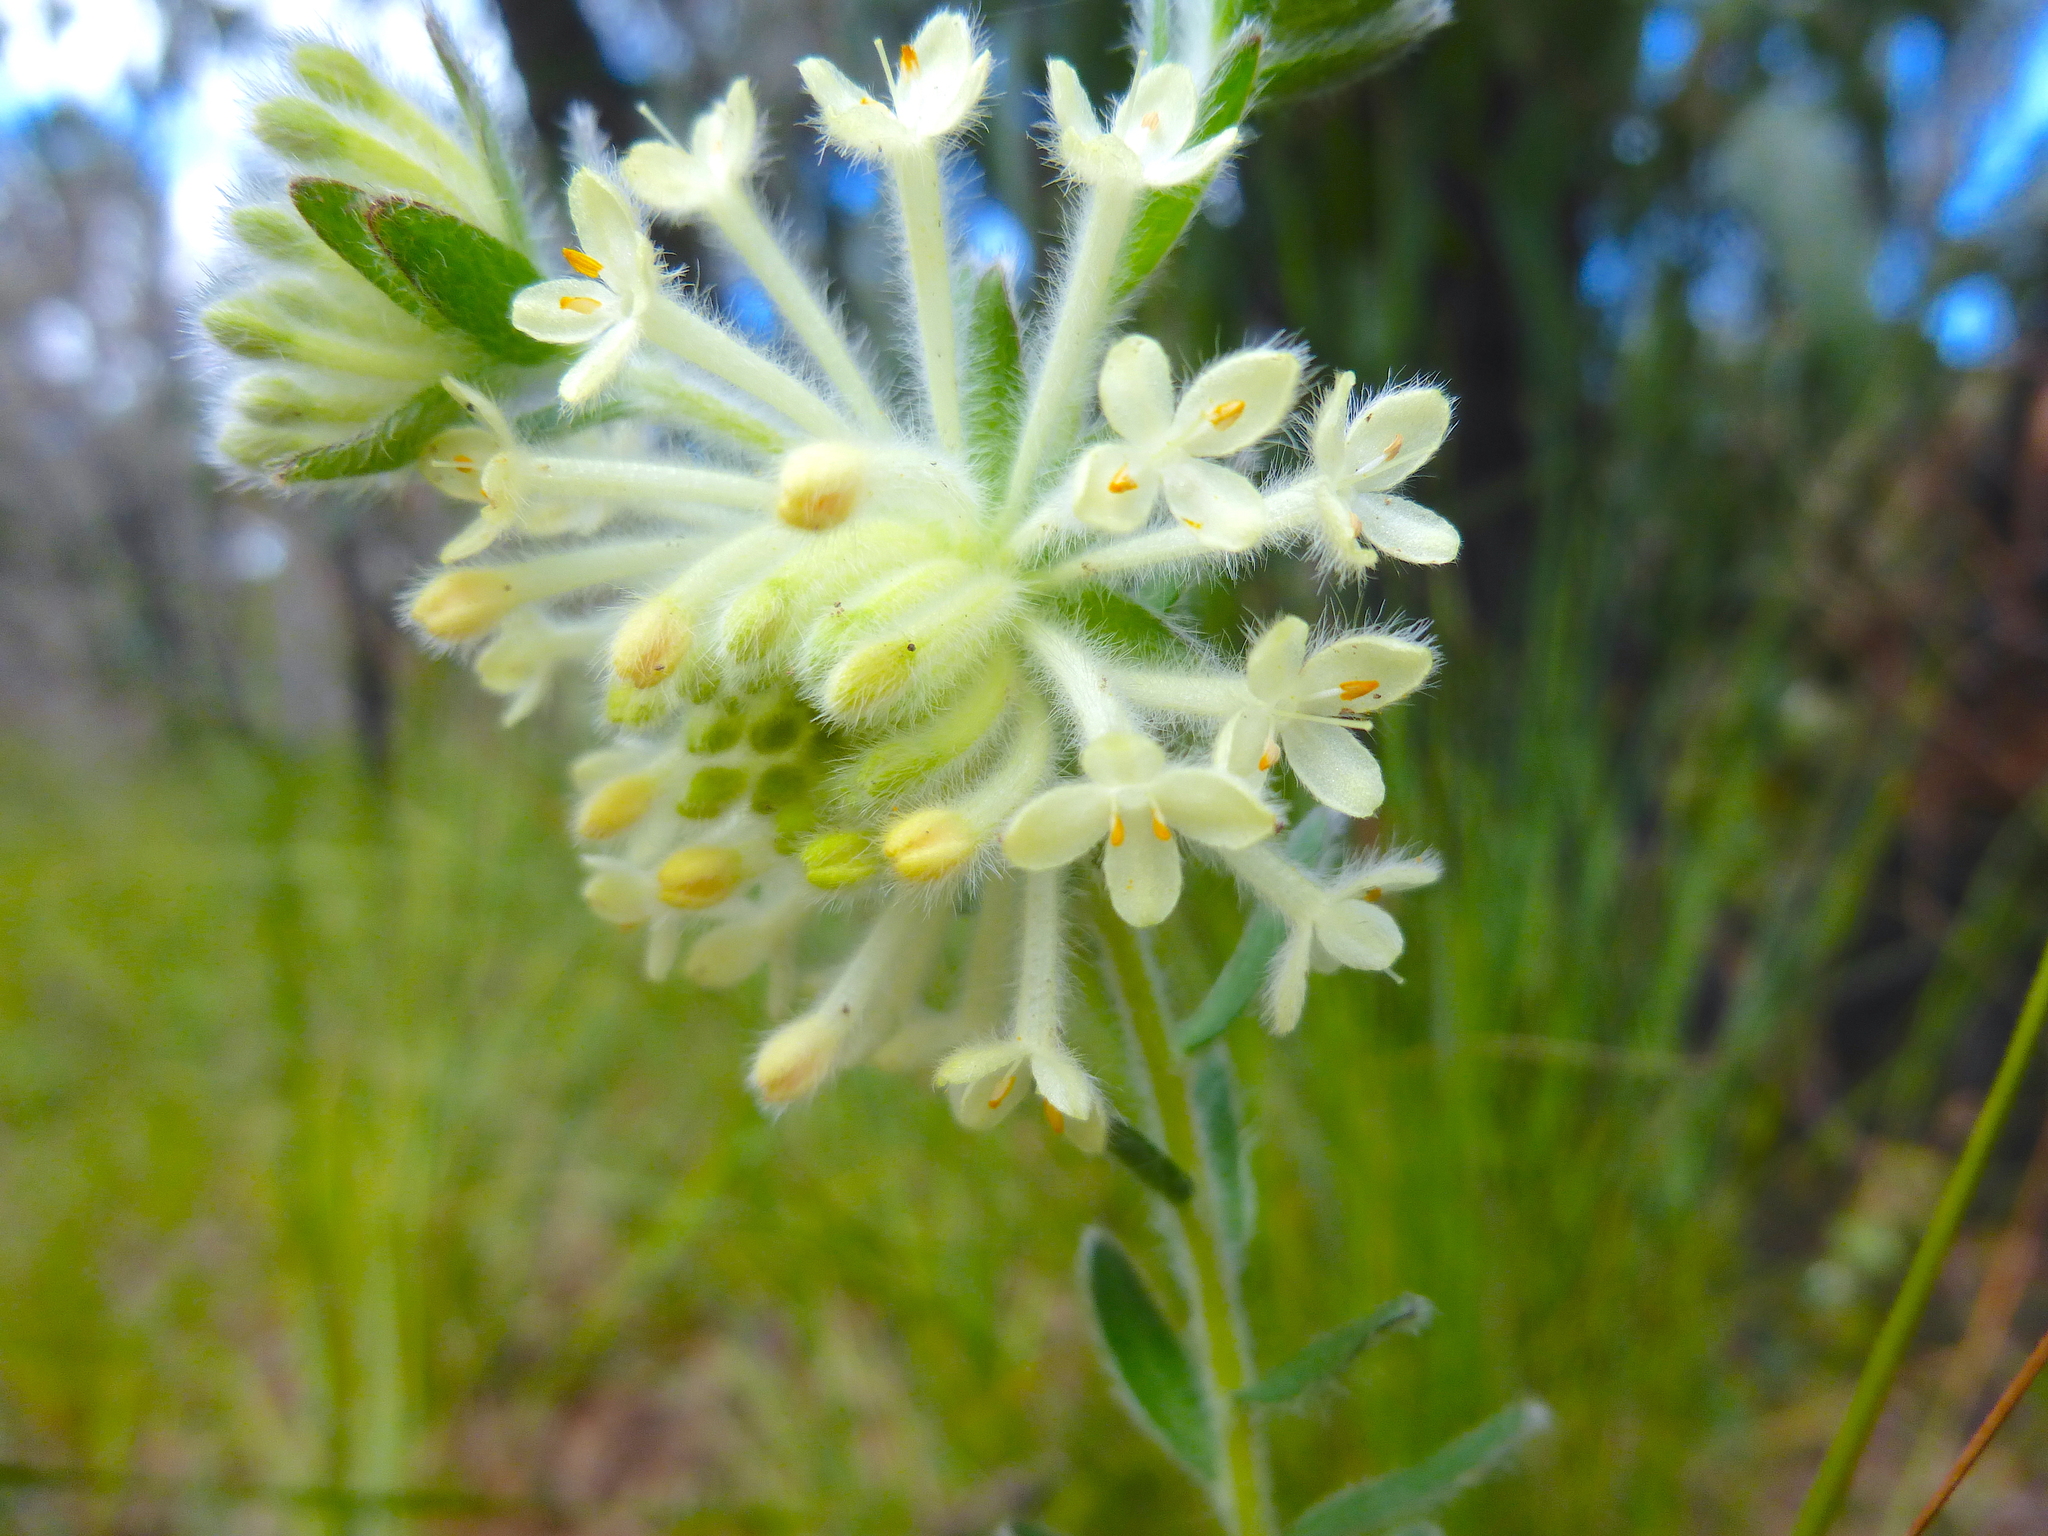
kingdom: Plantae
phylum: Tracheophyta
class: Magnoliopsida
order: Malvales
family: Thymelaeaceae
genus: Pimelea
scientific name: Pimelea octophylla
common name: Woolly riceflower
